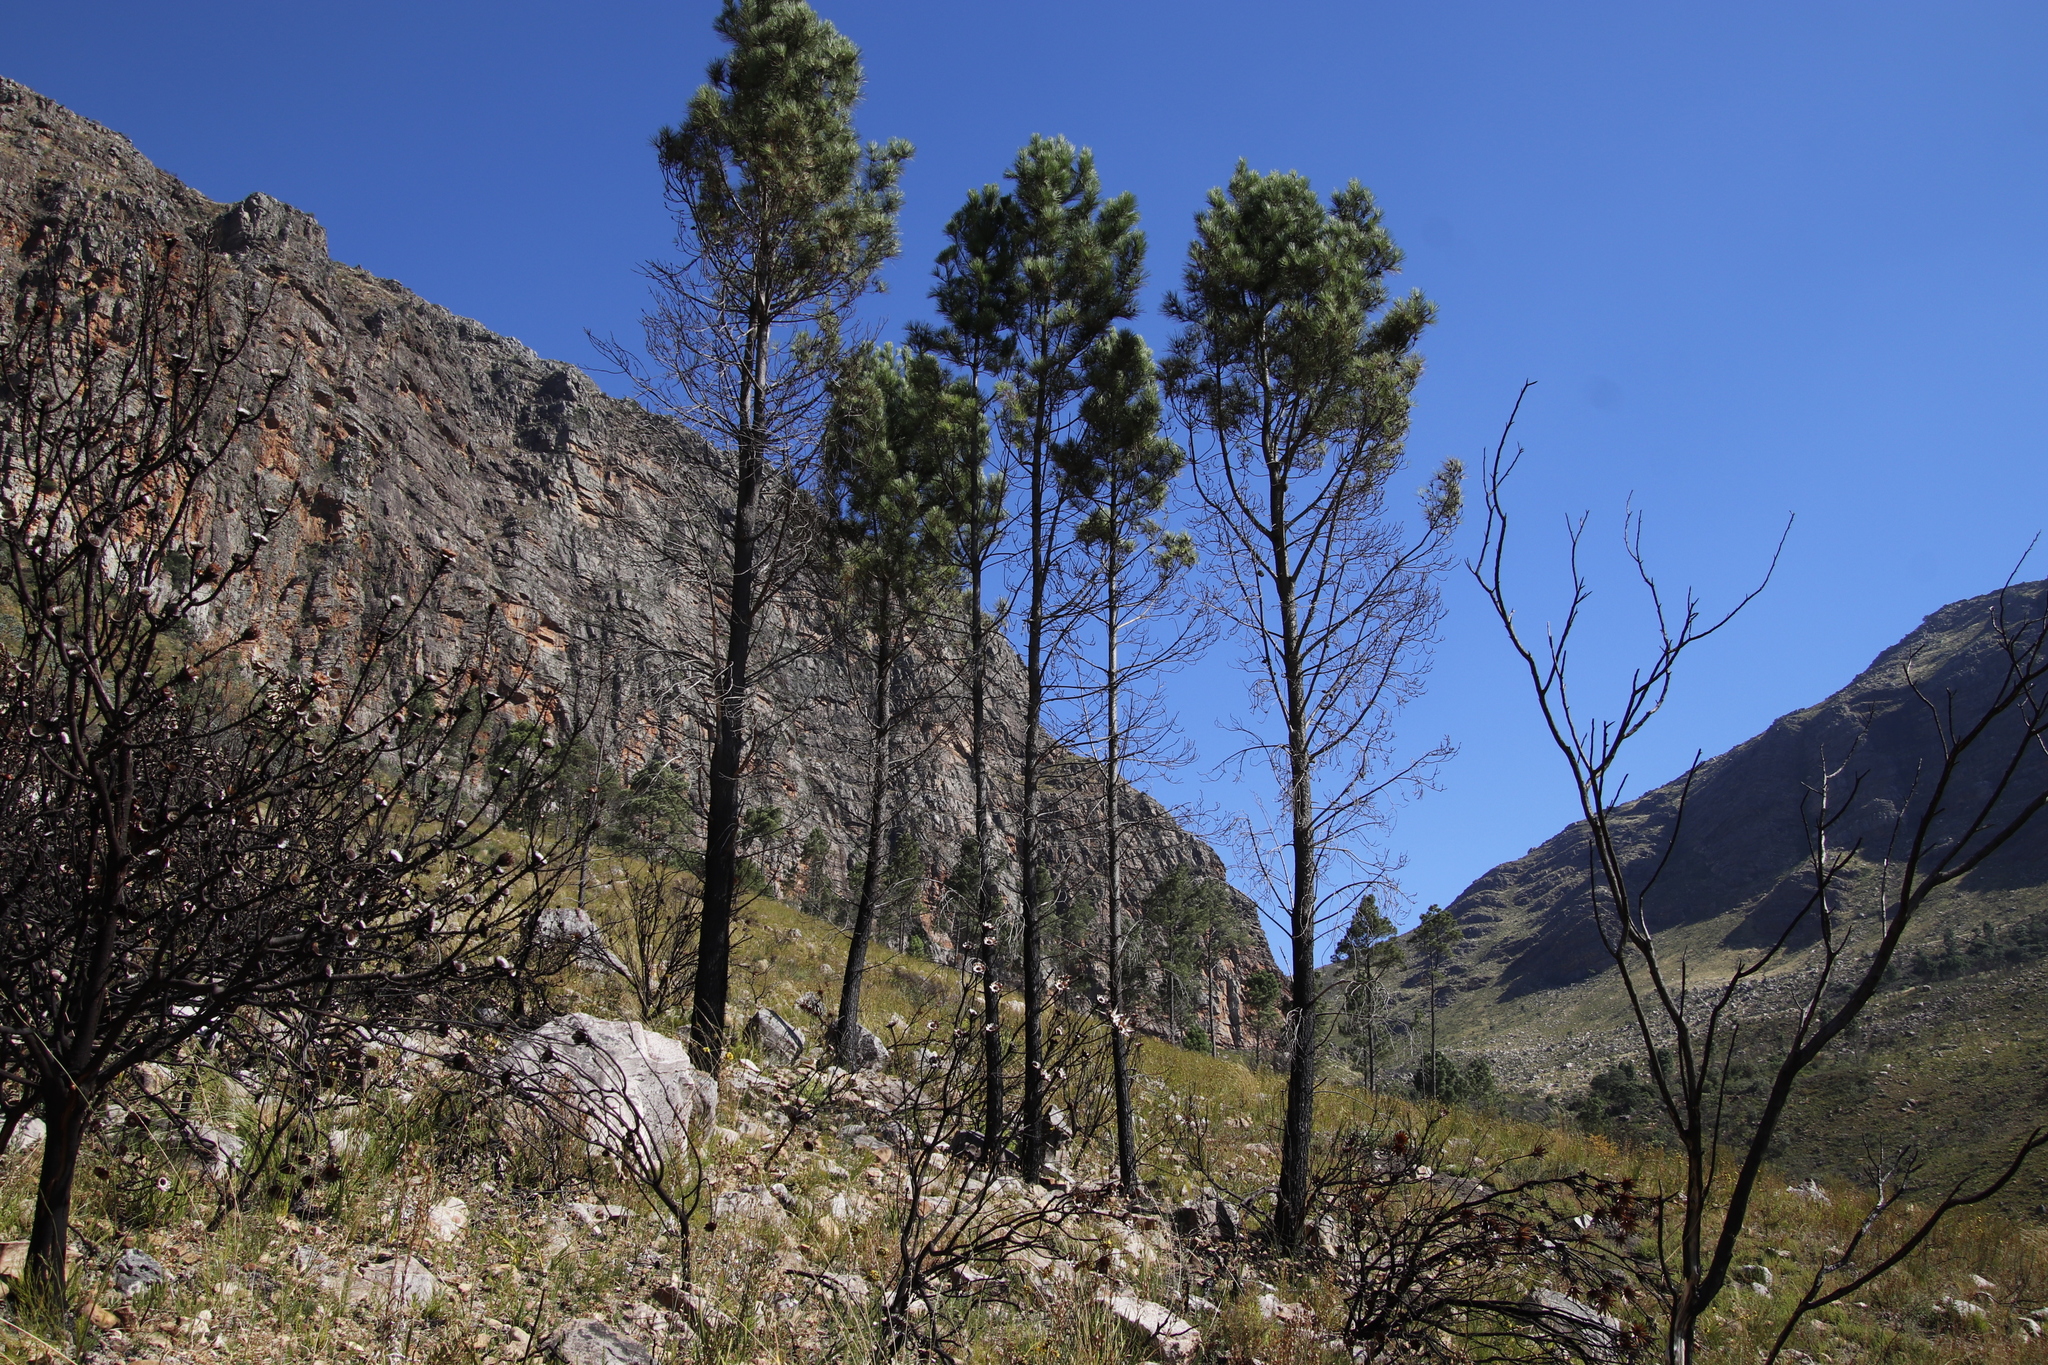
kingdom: Plantae
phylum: Tracheophyta
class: Pinopsida
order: Pinales
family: Pinaceae
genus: Pinus
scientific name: Pinus pinaster
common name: Maritime pine
